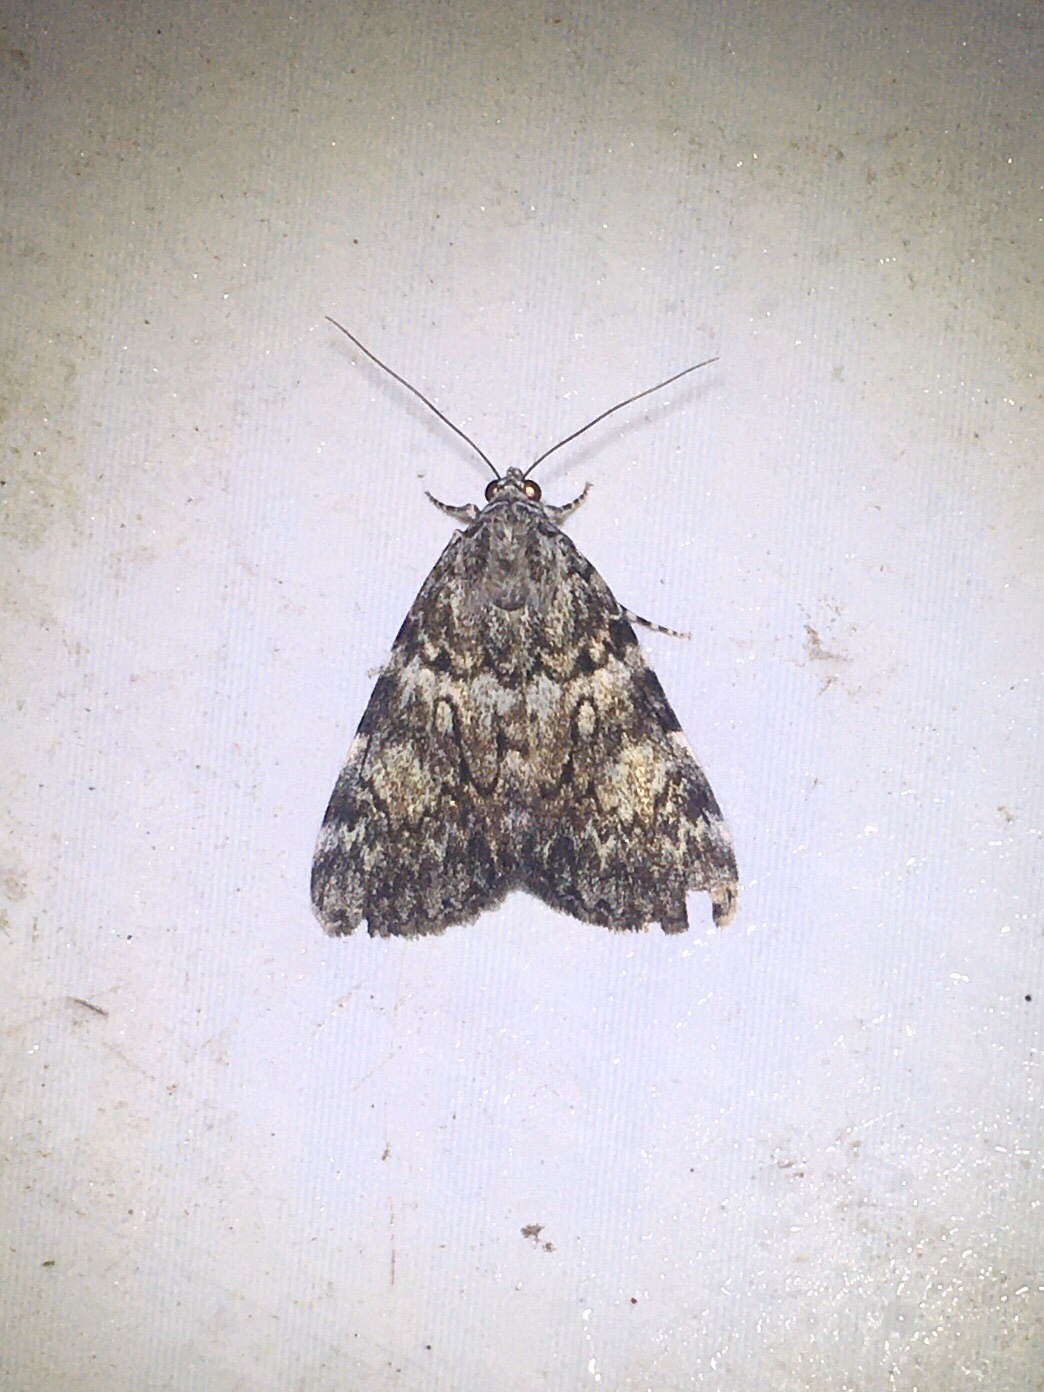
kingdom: Animalia
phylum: Arthropoda
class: Insecta
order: Lepidoptera
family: Erebidae
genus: Catocala
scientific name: Catocala lineella
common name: Little lined underwing
